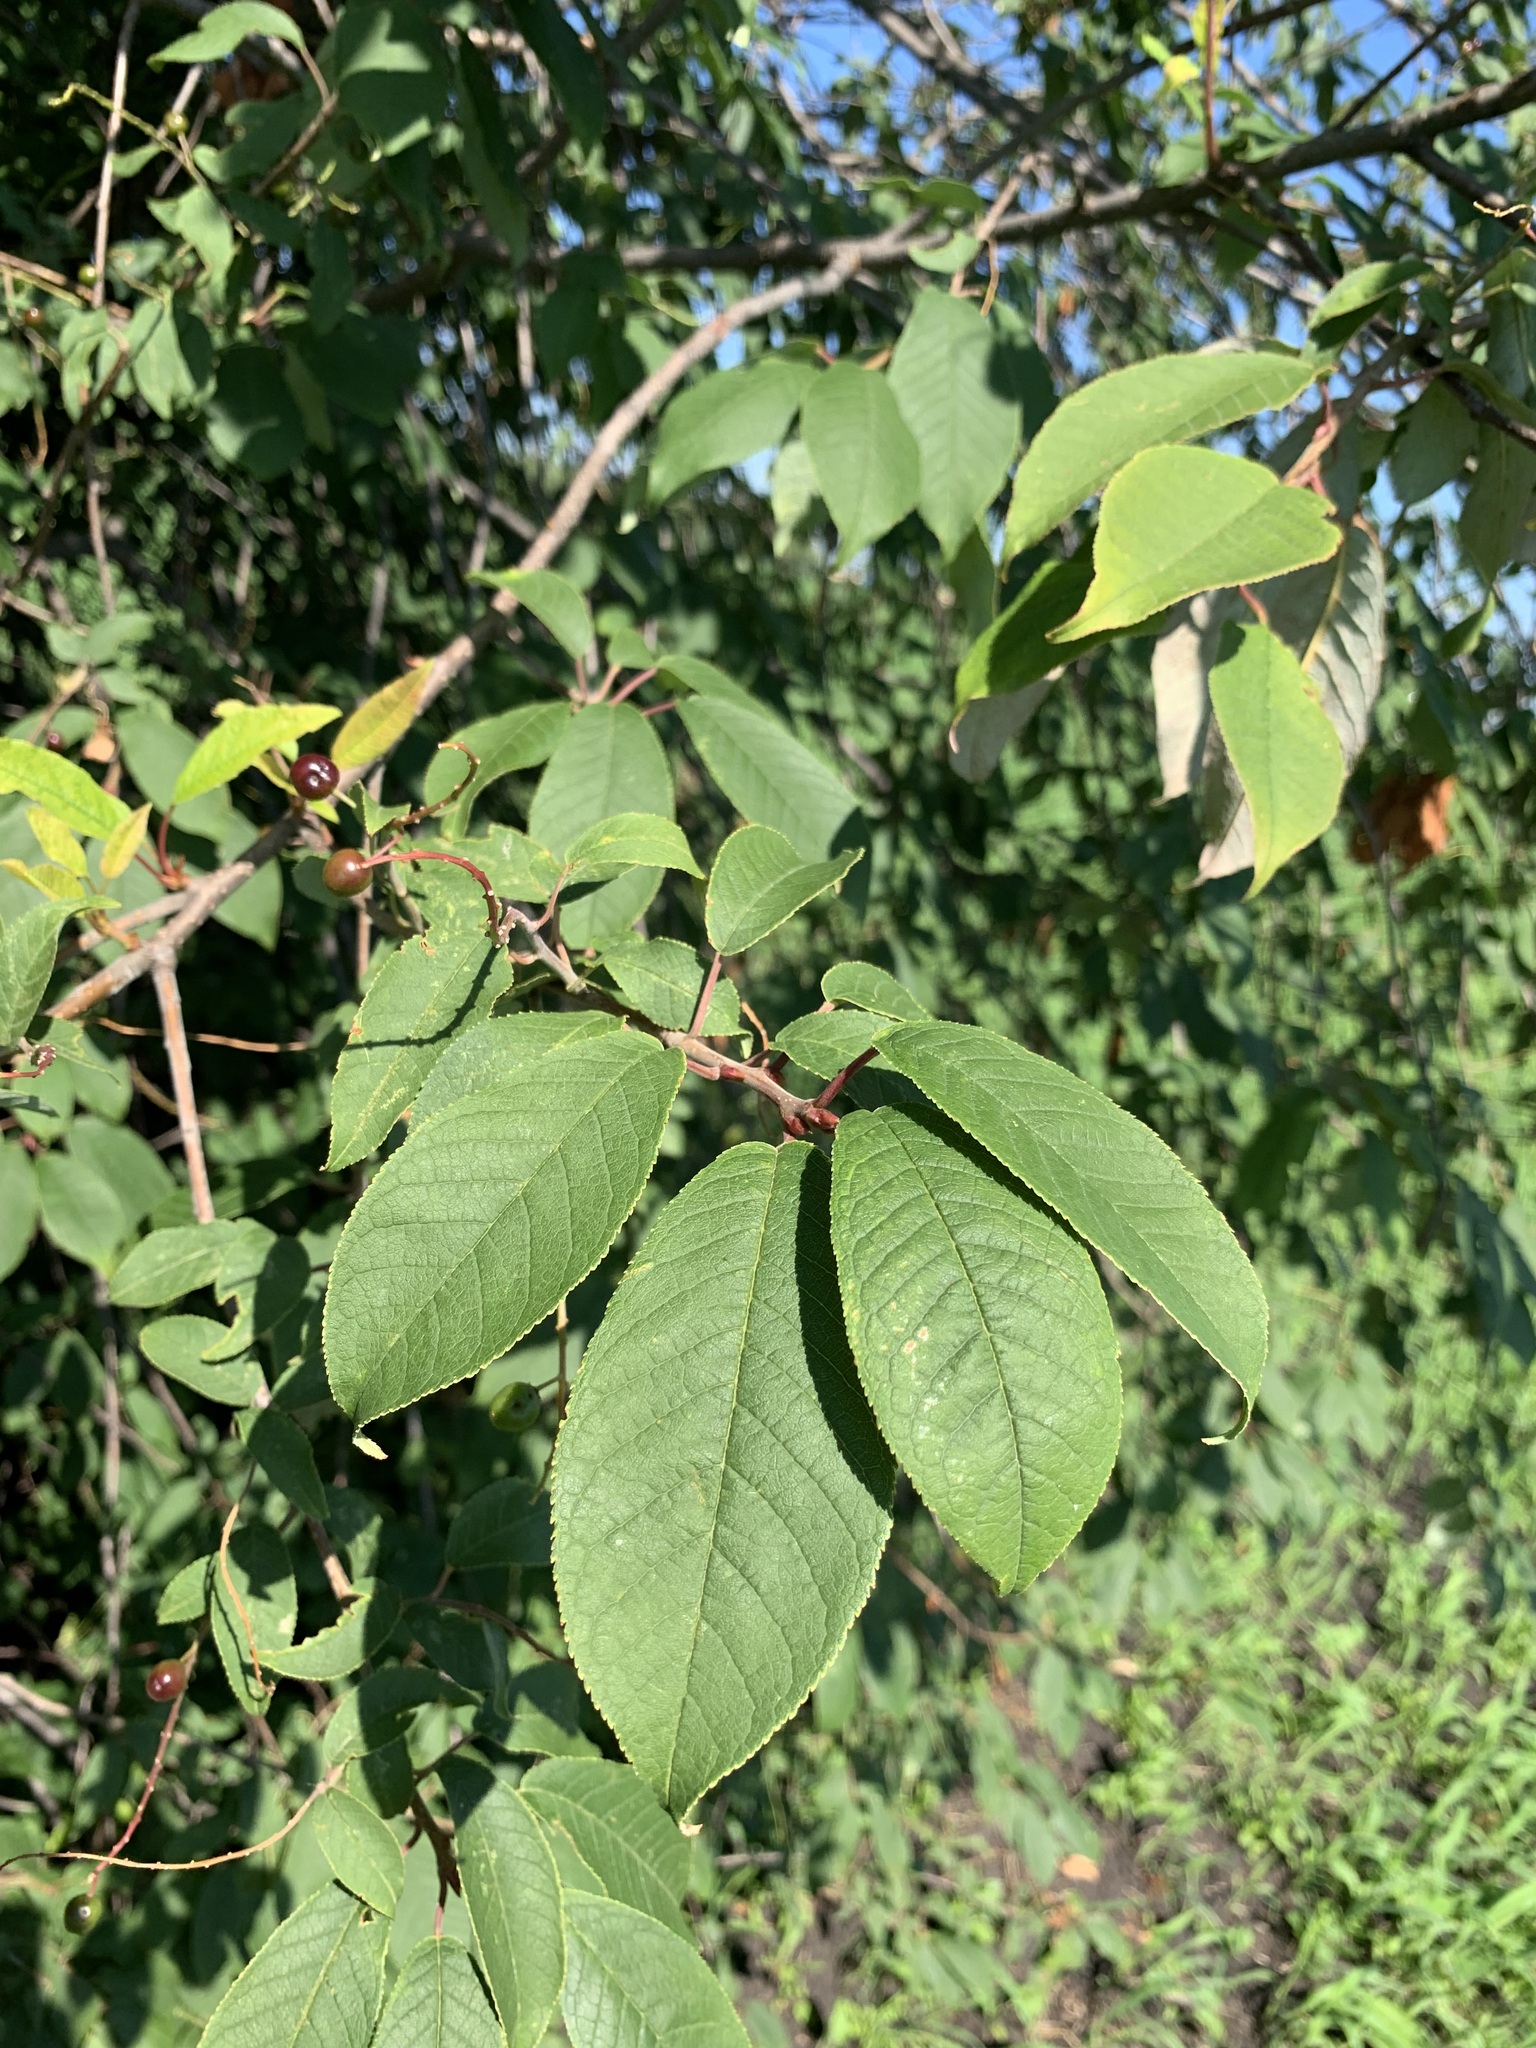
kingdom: Plantae
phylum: Tracheophyta
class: Magnoliopsida
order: Rosales
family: Rosaceae
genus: Prunus
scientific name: Prunus padus
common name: Bird cherry
